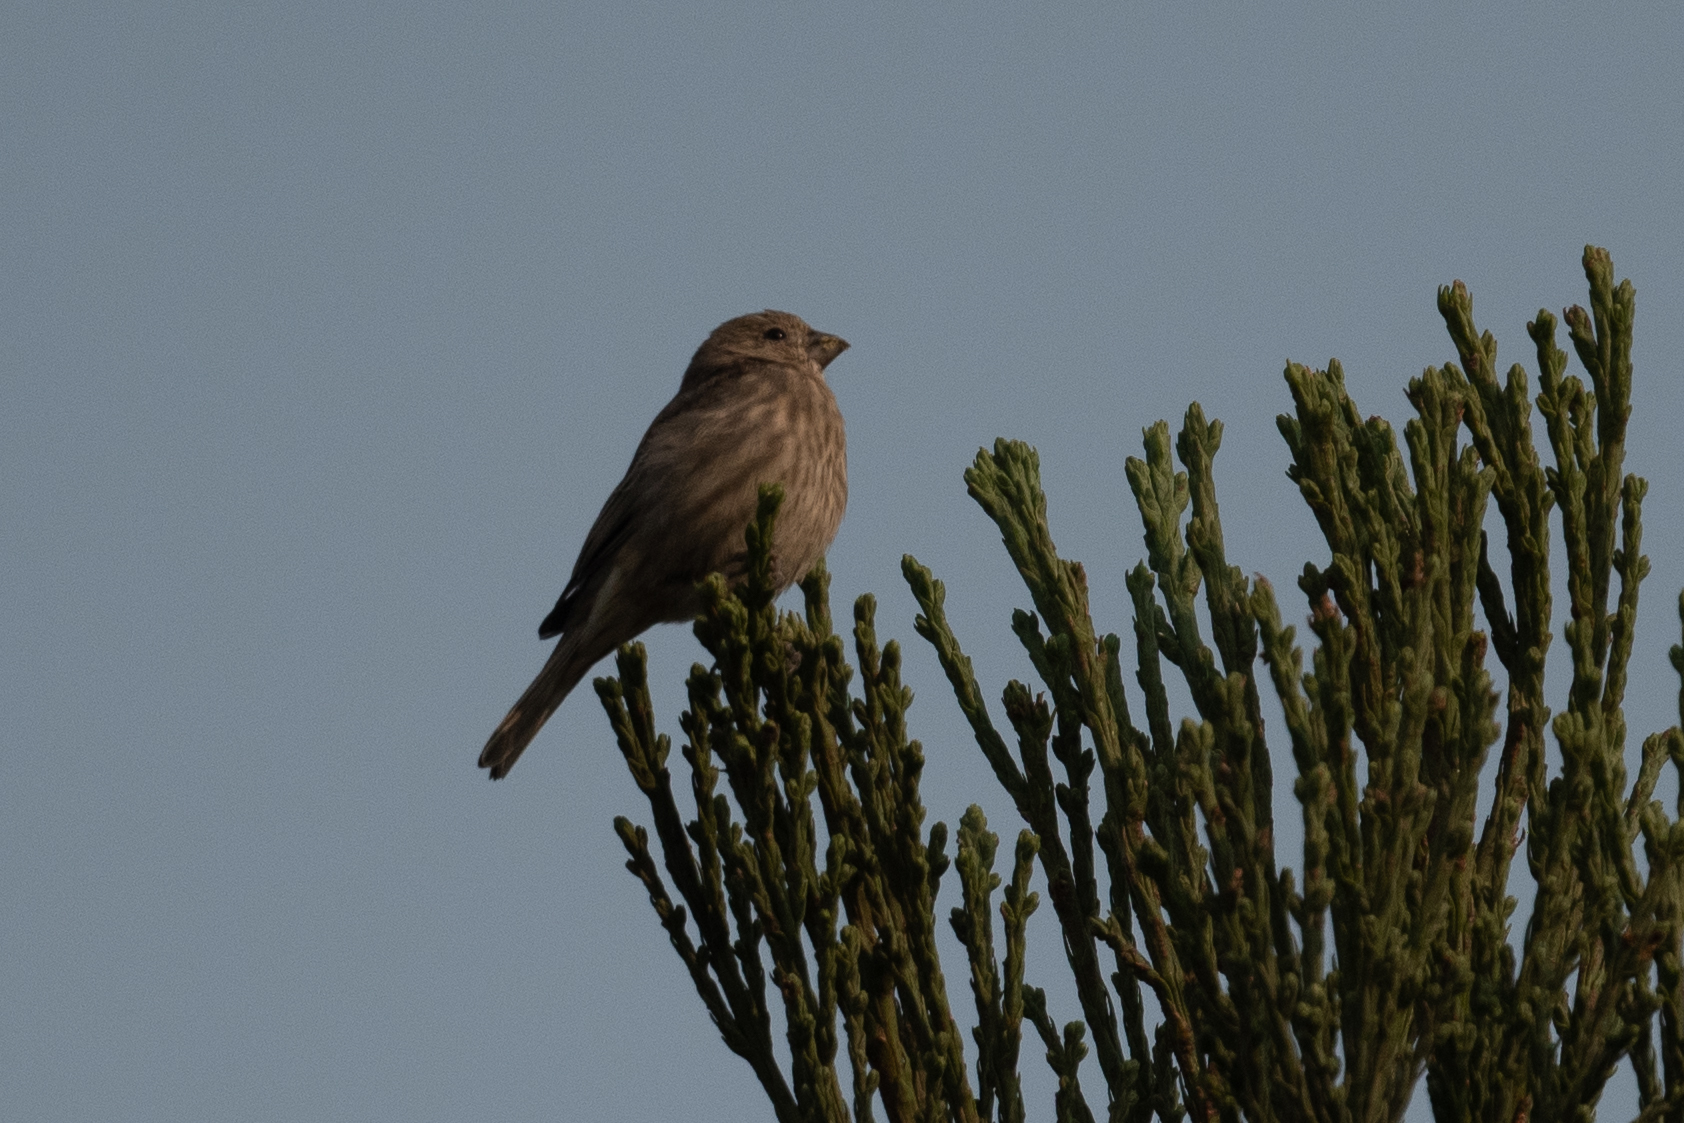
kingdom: Animalia
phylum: Chordata
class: Aves
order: Passeriformes
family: Fringillidae
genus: Haemorhous
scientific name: Haemorhous mexicanus
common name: House finch
